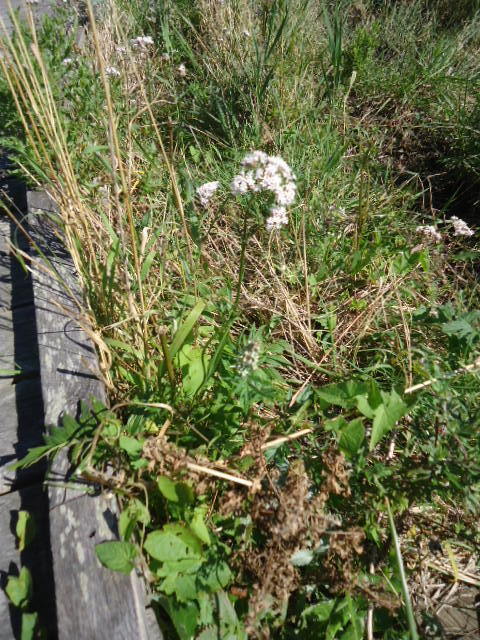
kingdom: Plantae
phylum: Tracheophyta
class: Magnoliopsida
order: Dipsacales
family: Caprifoliaceae
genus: Valeriana
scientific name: Valeriana officinalis
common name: Common valerian
